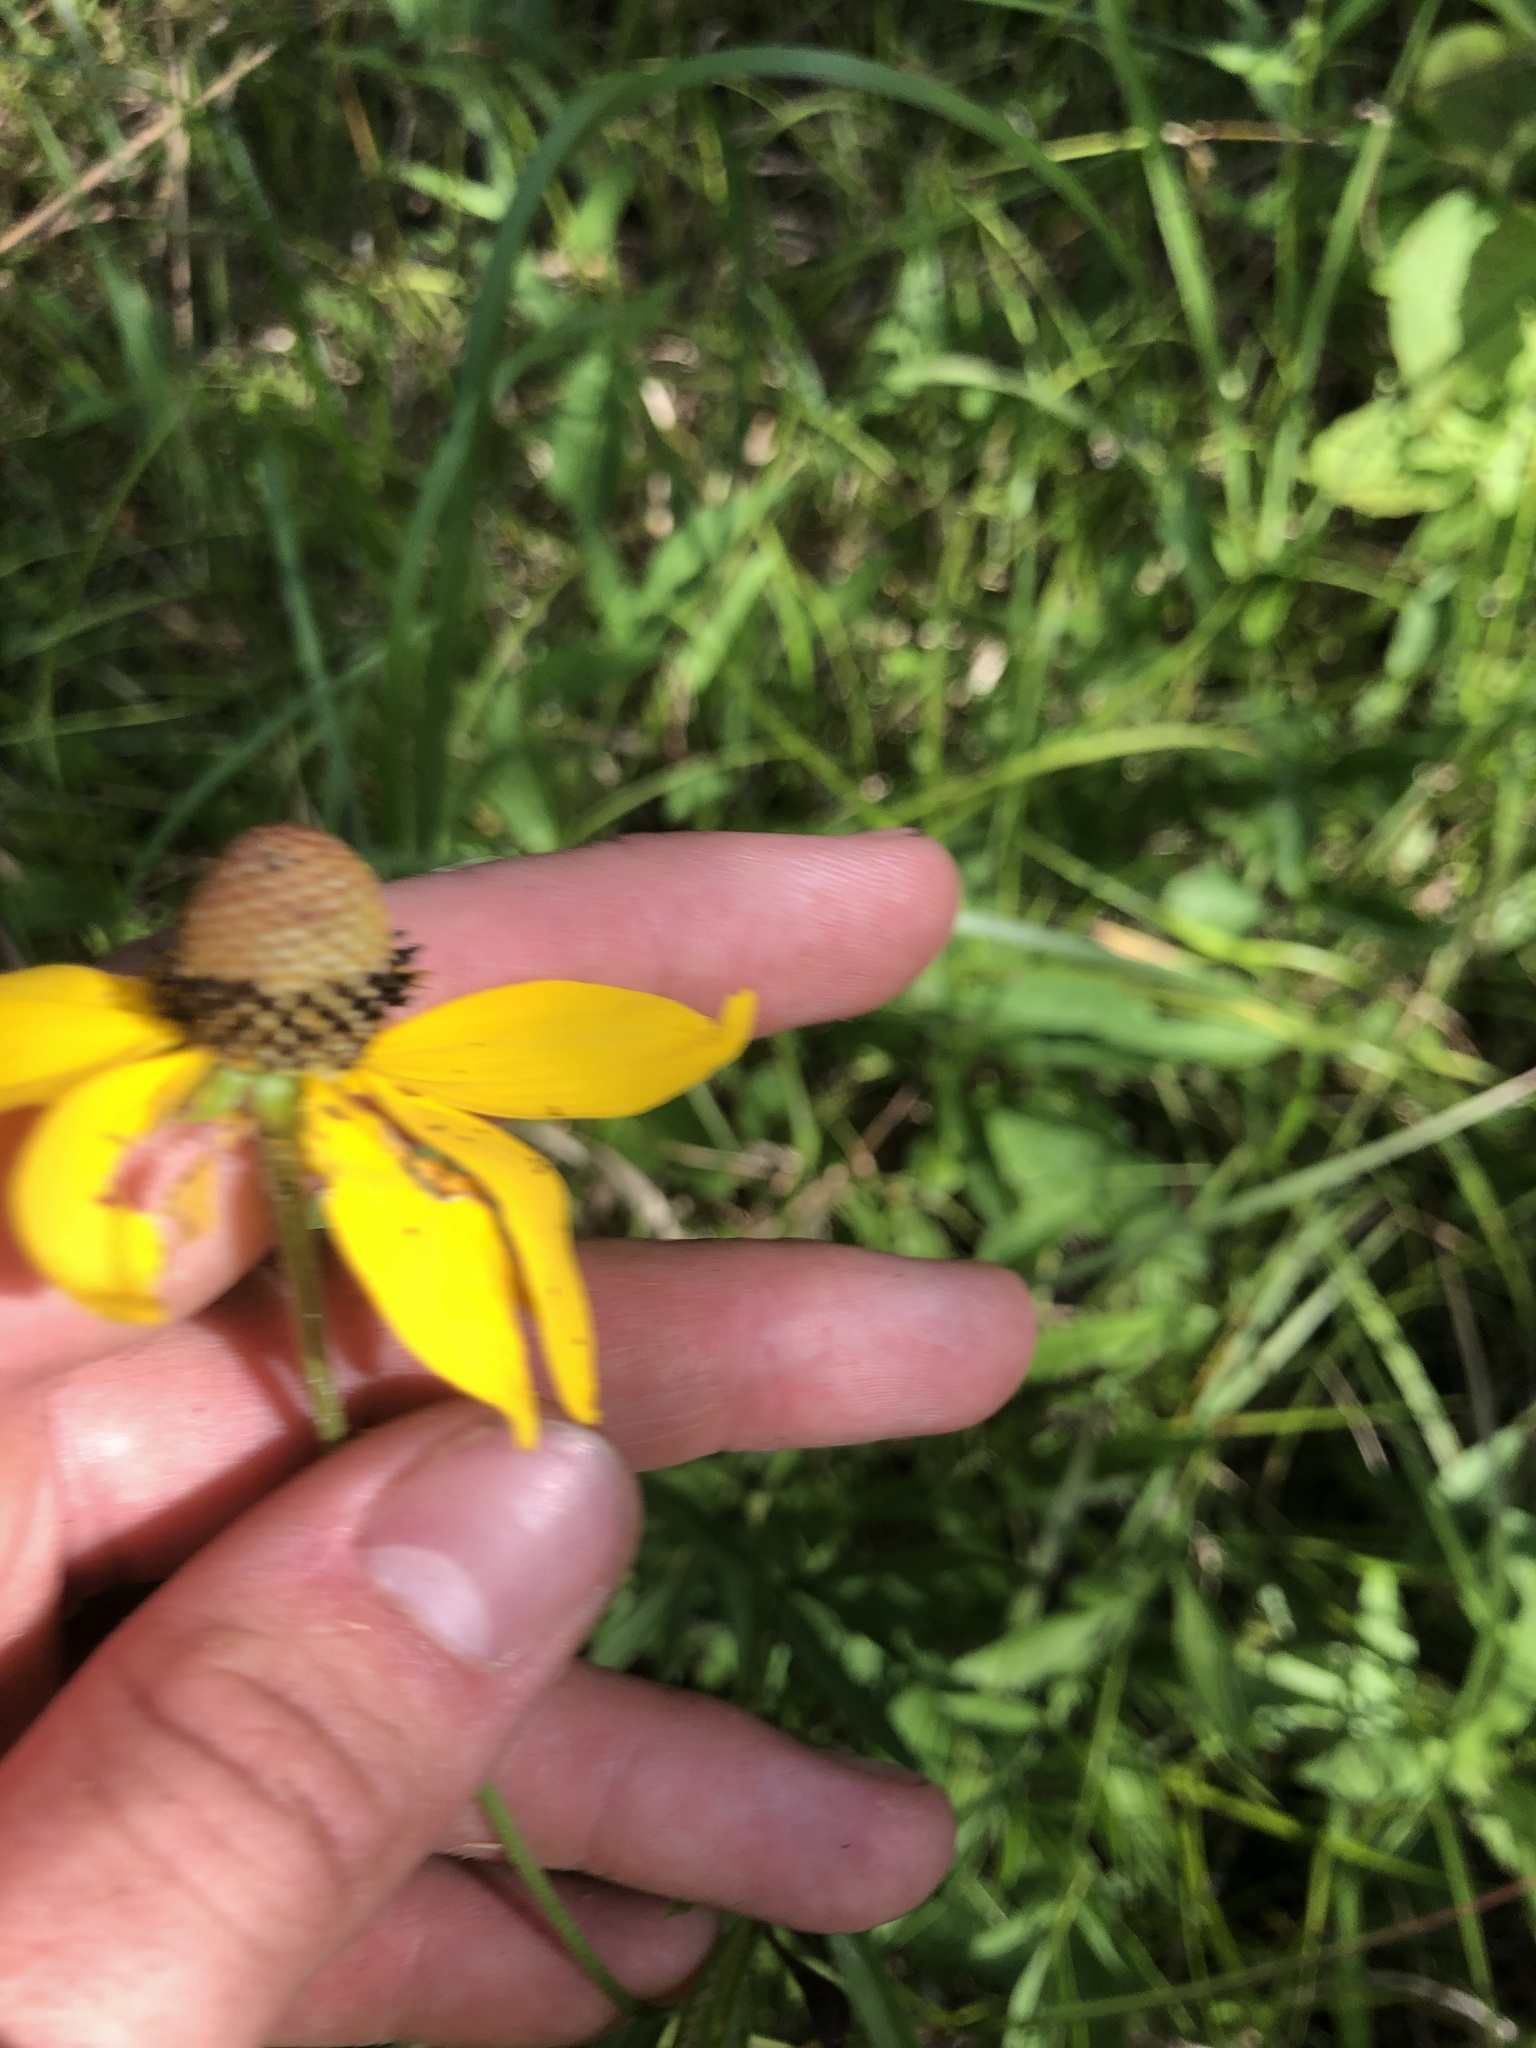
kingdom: Plantae
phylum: Tracheophyta
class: Magnoliopsida
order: Asterales
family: Asteraceae
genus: Ratibida
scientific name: Ratibida pinnata
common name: Drooping prairie-coneflower
